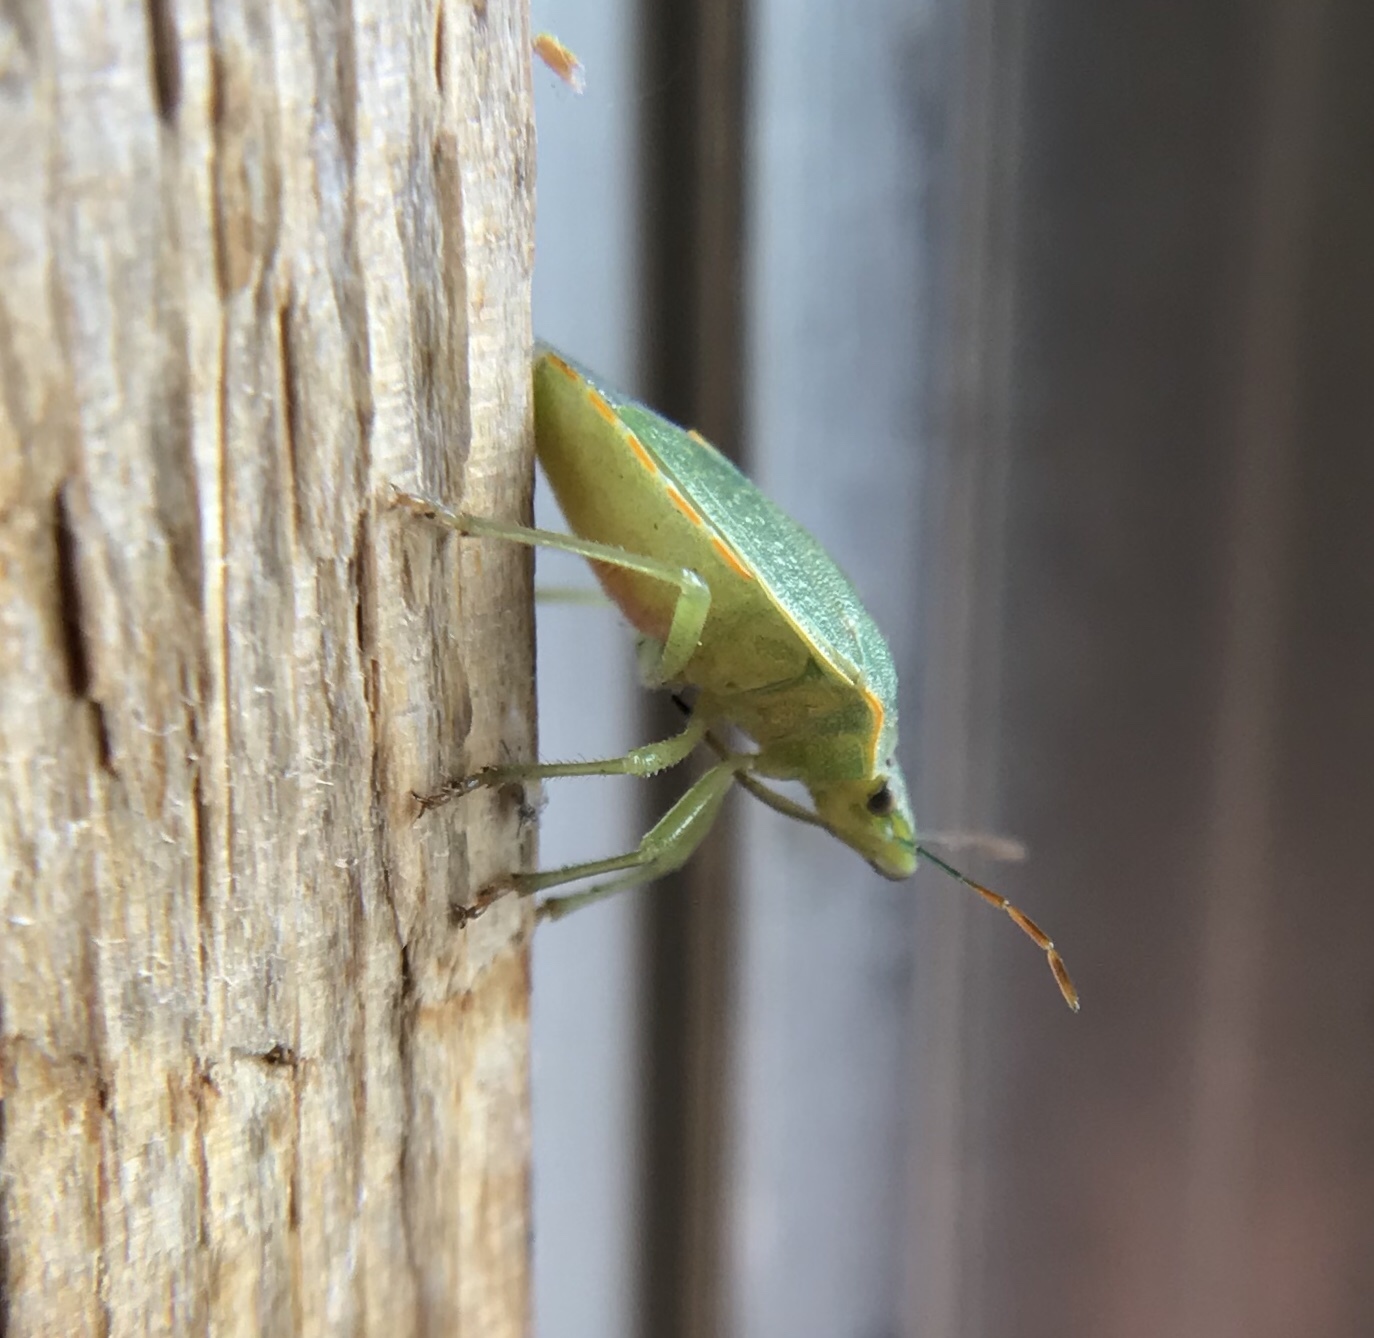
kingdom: Animalia
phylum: Arthropoda
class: Insecta
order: Hemiptera
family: Pentatomidae
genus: Thyanta
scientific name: Thyanta custator
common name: Stink bug
